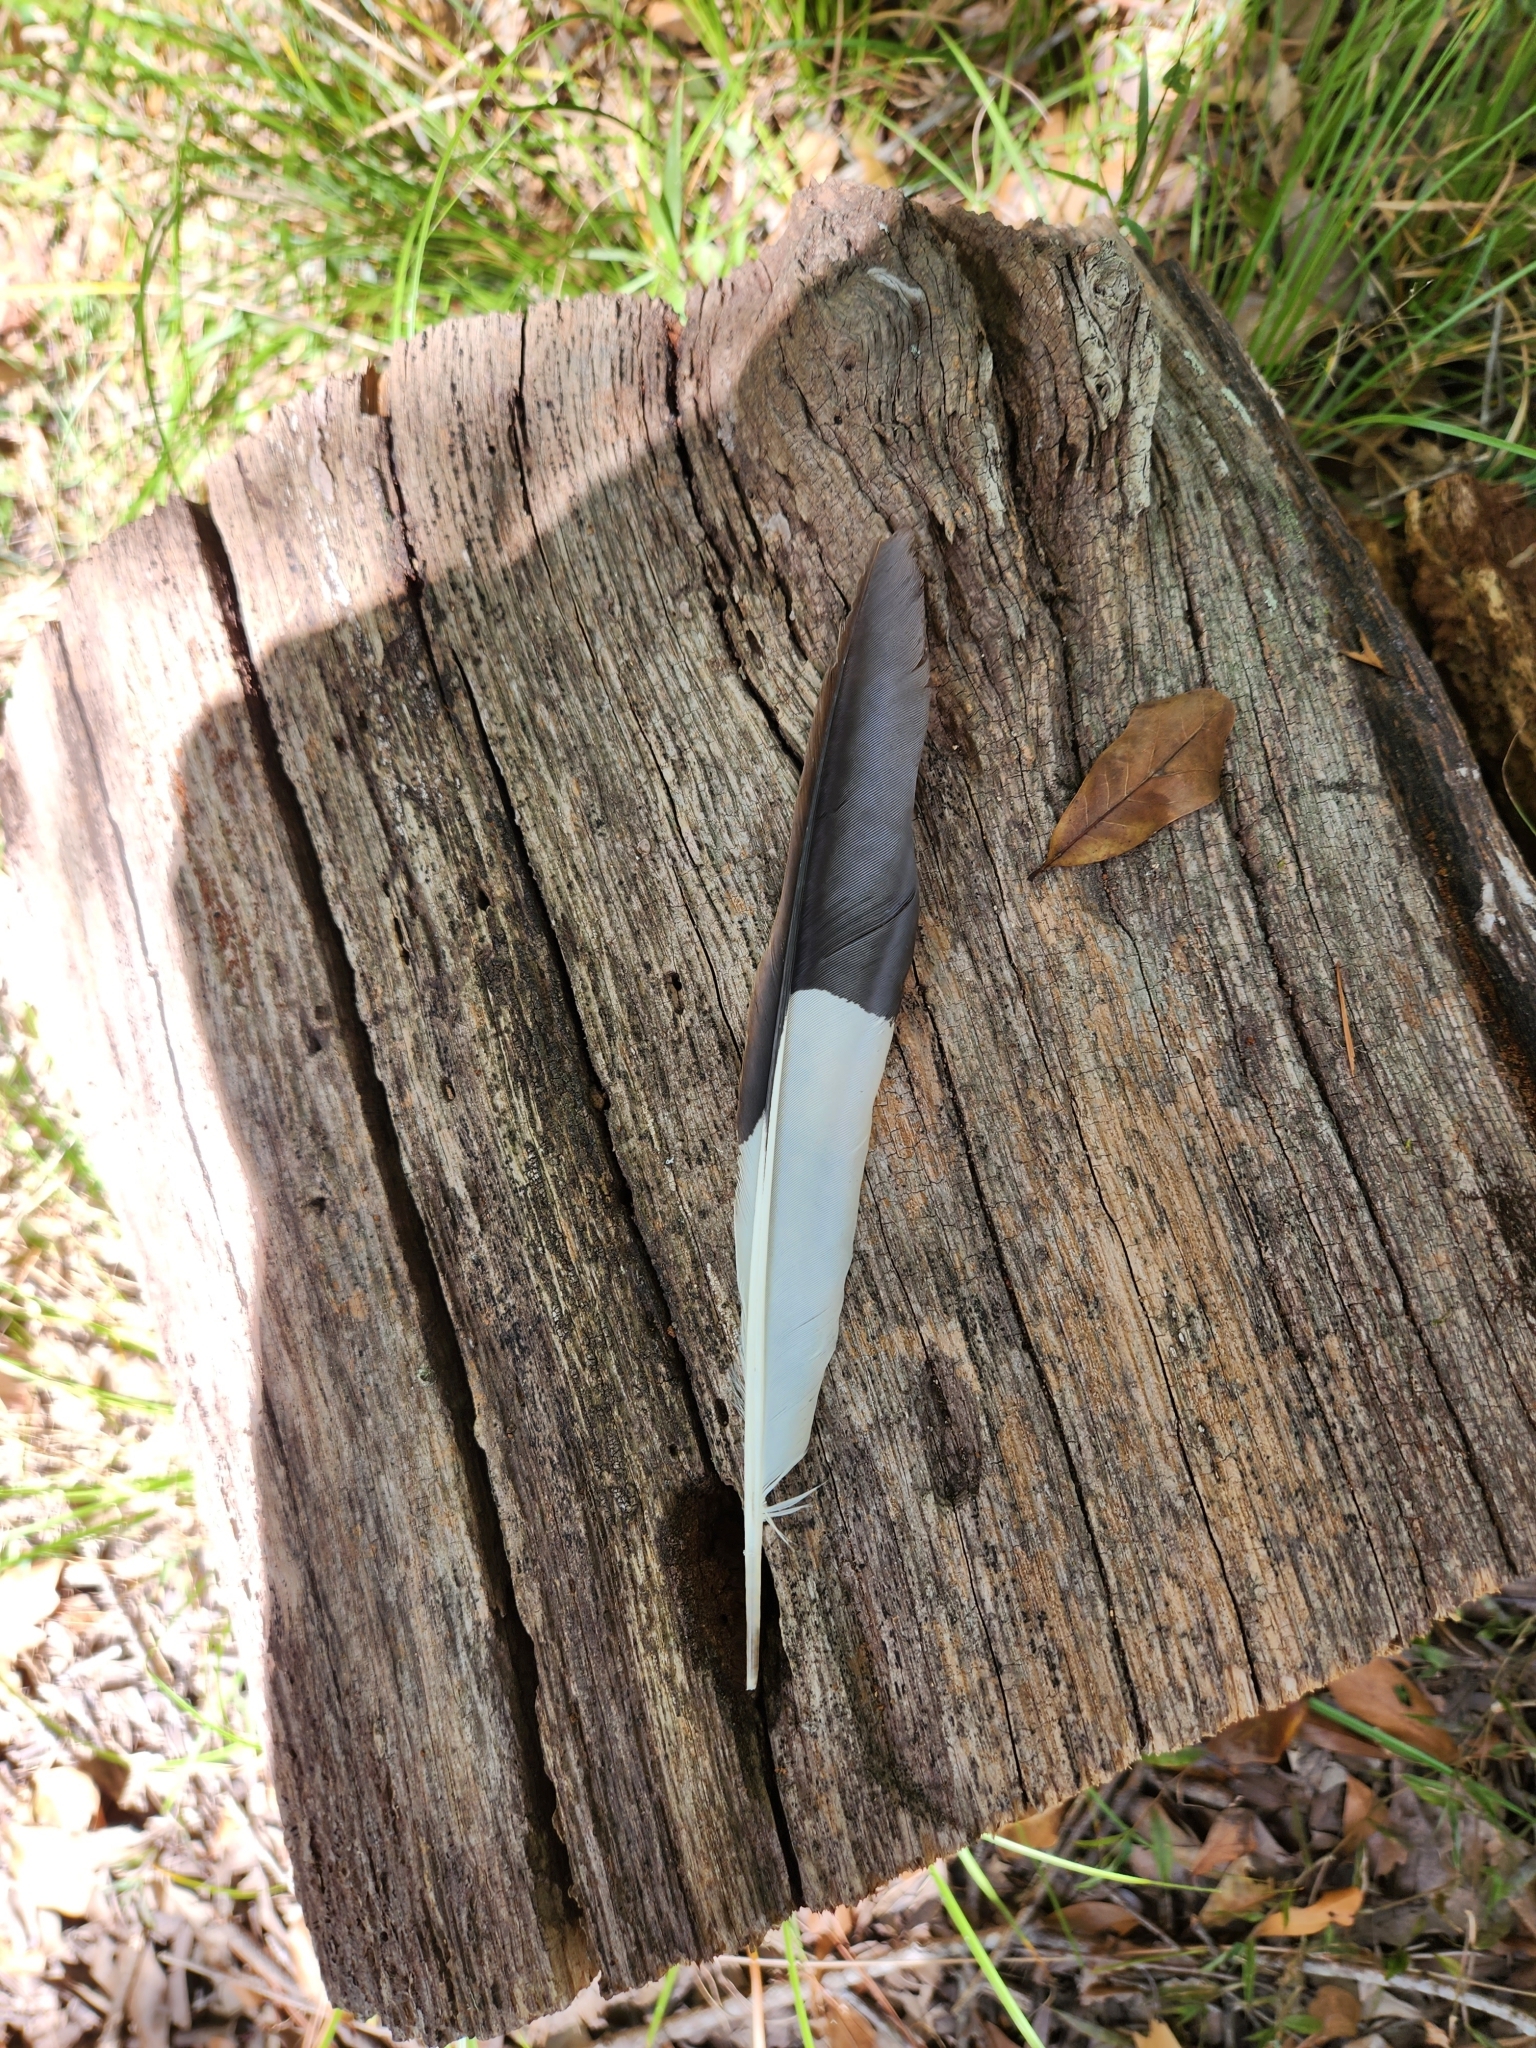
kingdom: Animalia
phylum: Chordata
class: Aves
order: Piciformes
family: Picidae
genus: Dryocopus
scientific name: Dryocopus pileatus
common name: Pileated woodpecker
